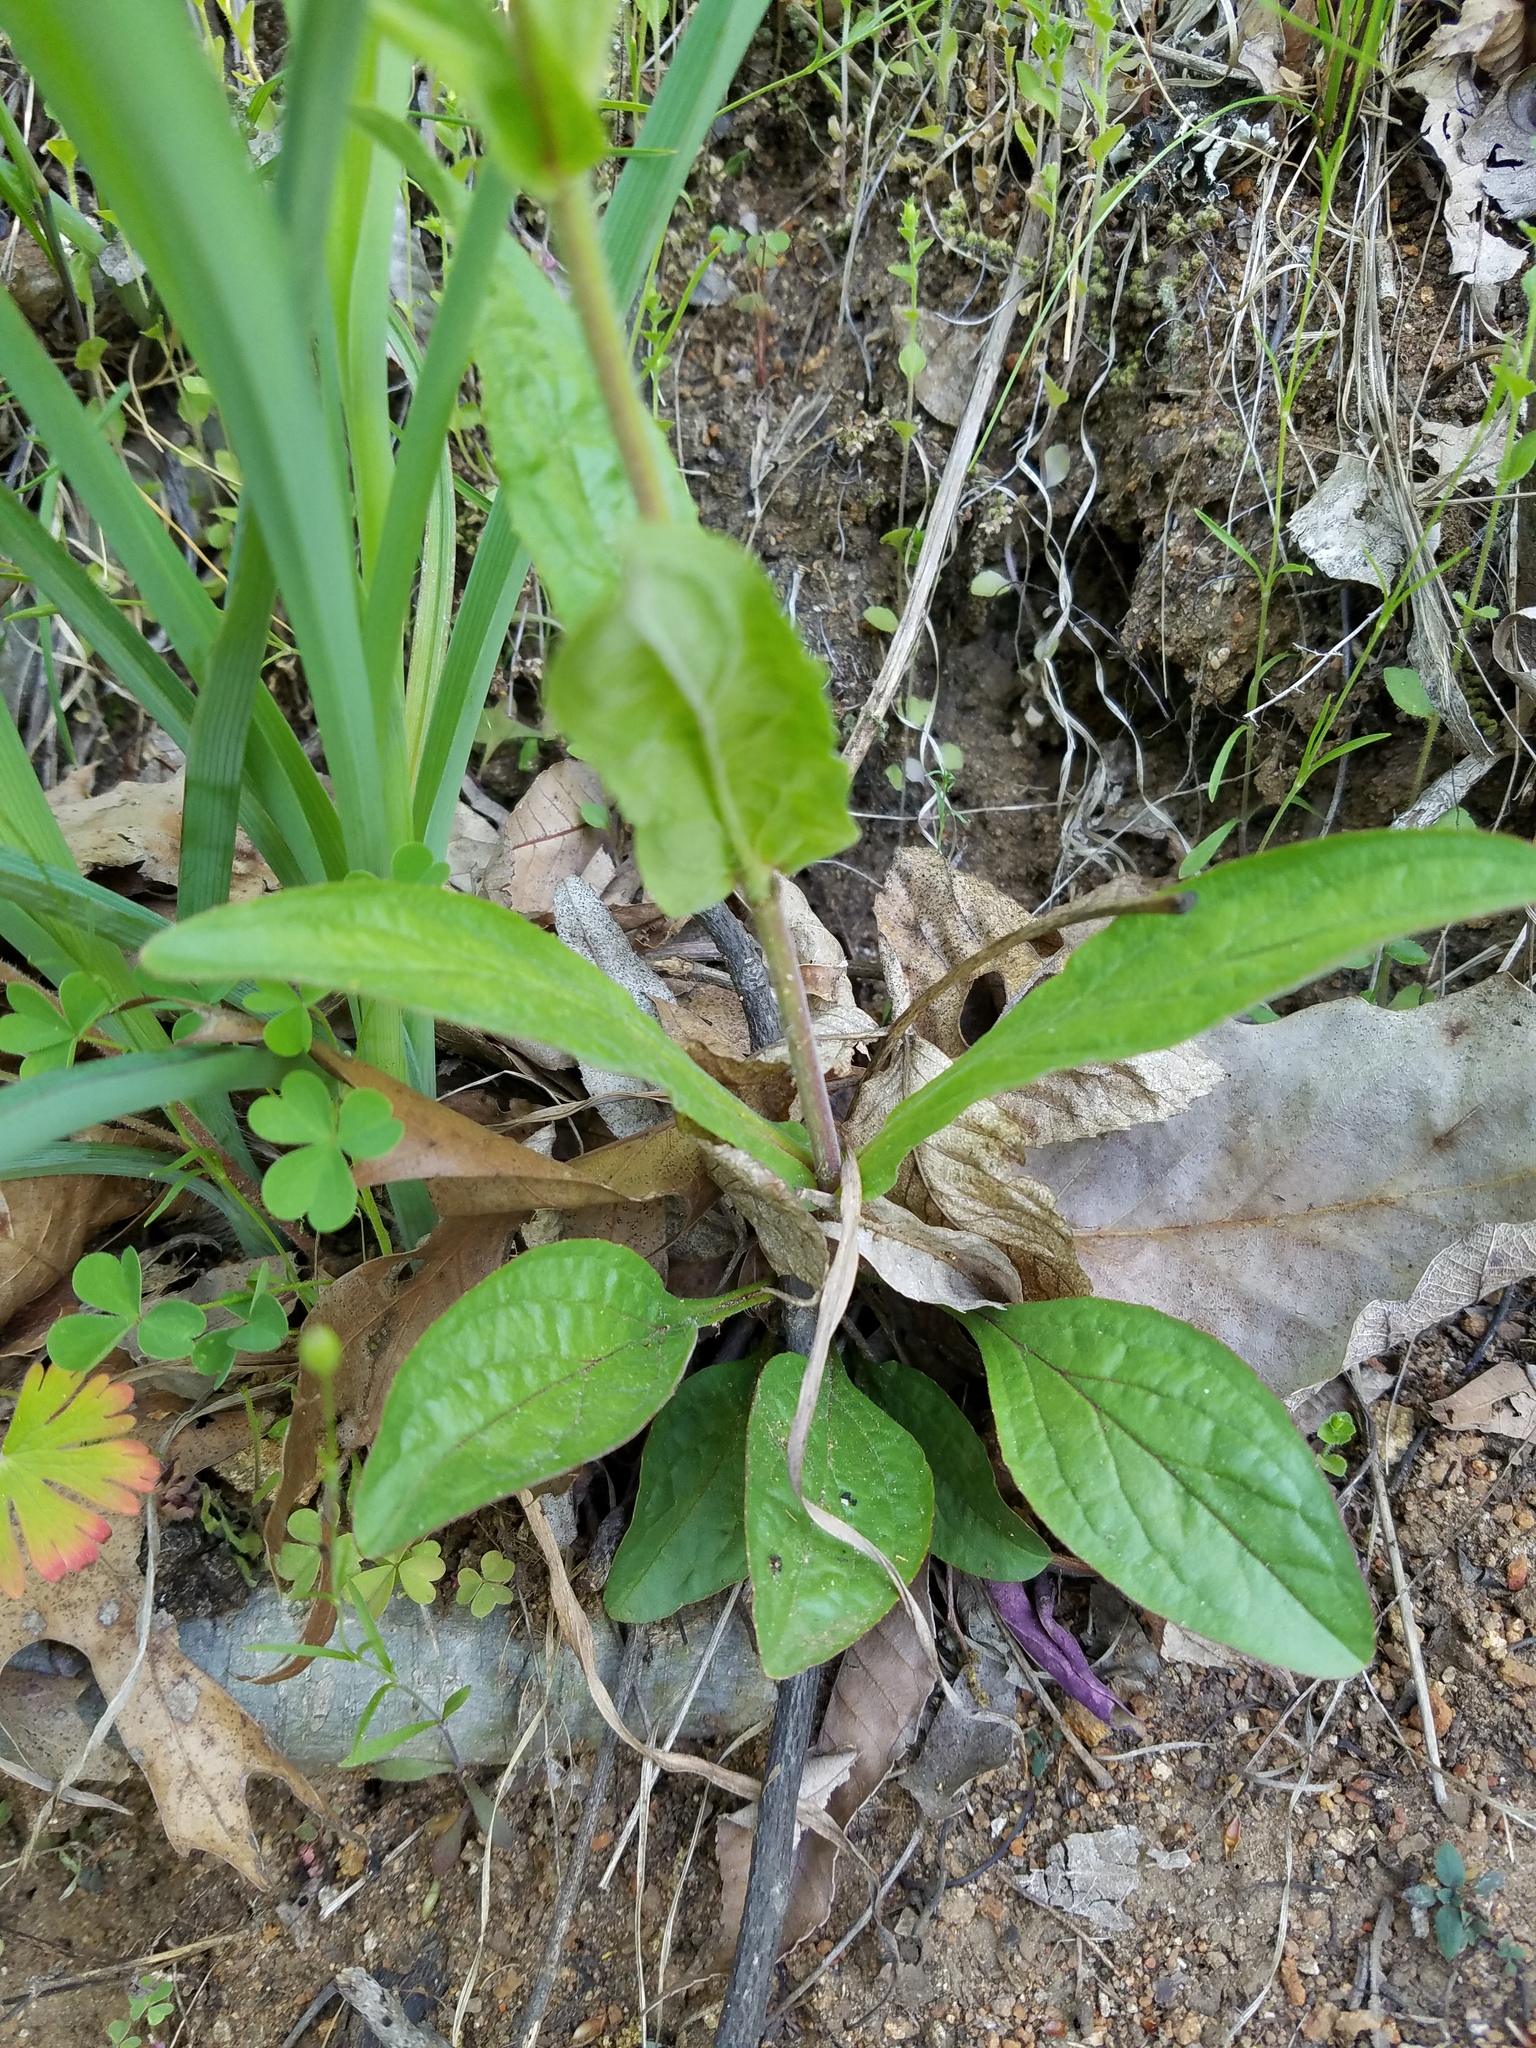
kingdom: Plantae
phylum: Tracheophyta
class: Magnoliopsida
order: Lamiales
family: Plantaginaceae
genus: Penstemon
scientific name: Penstemon australis
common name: Southeastern beardtongue
